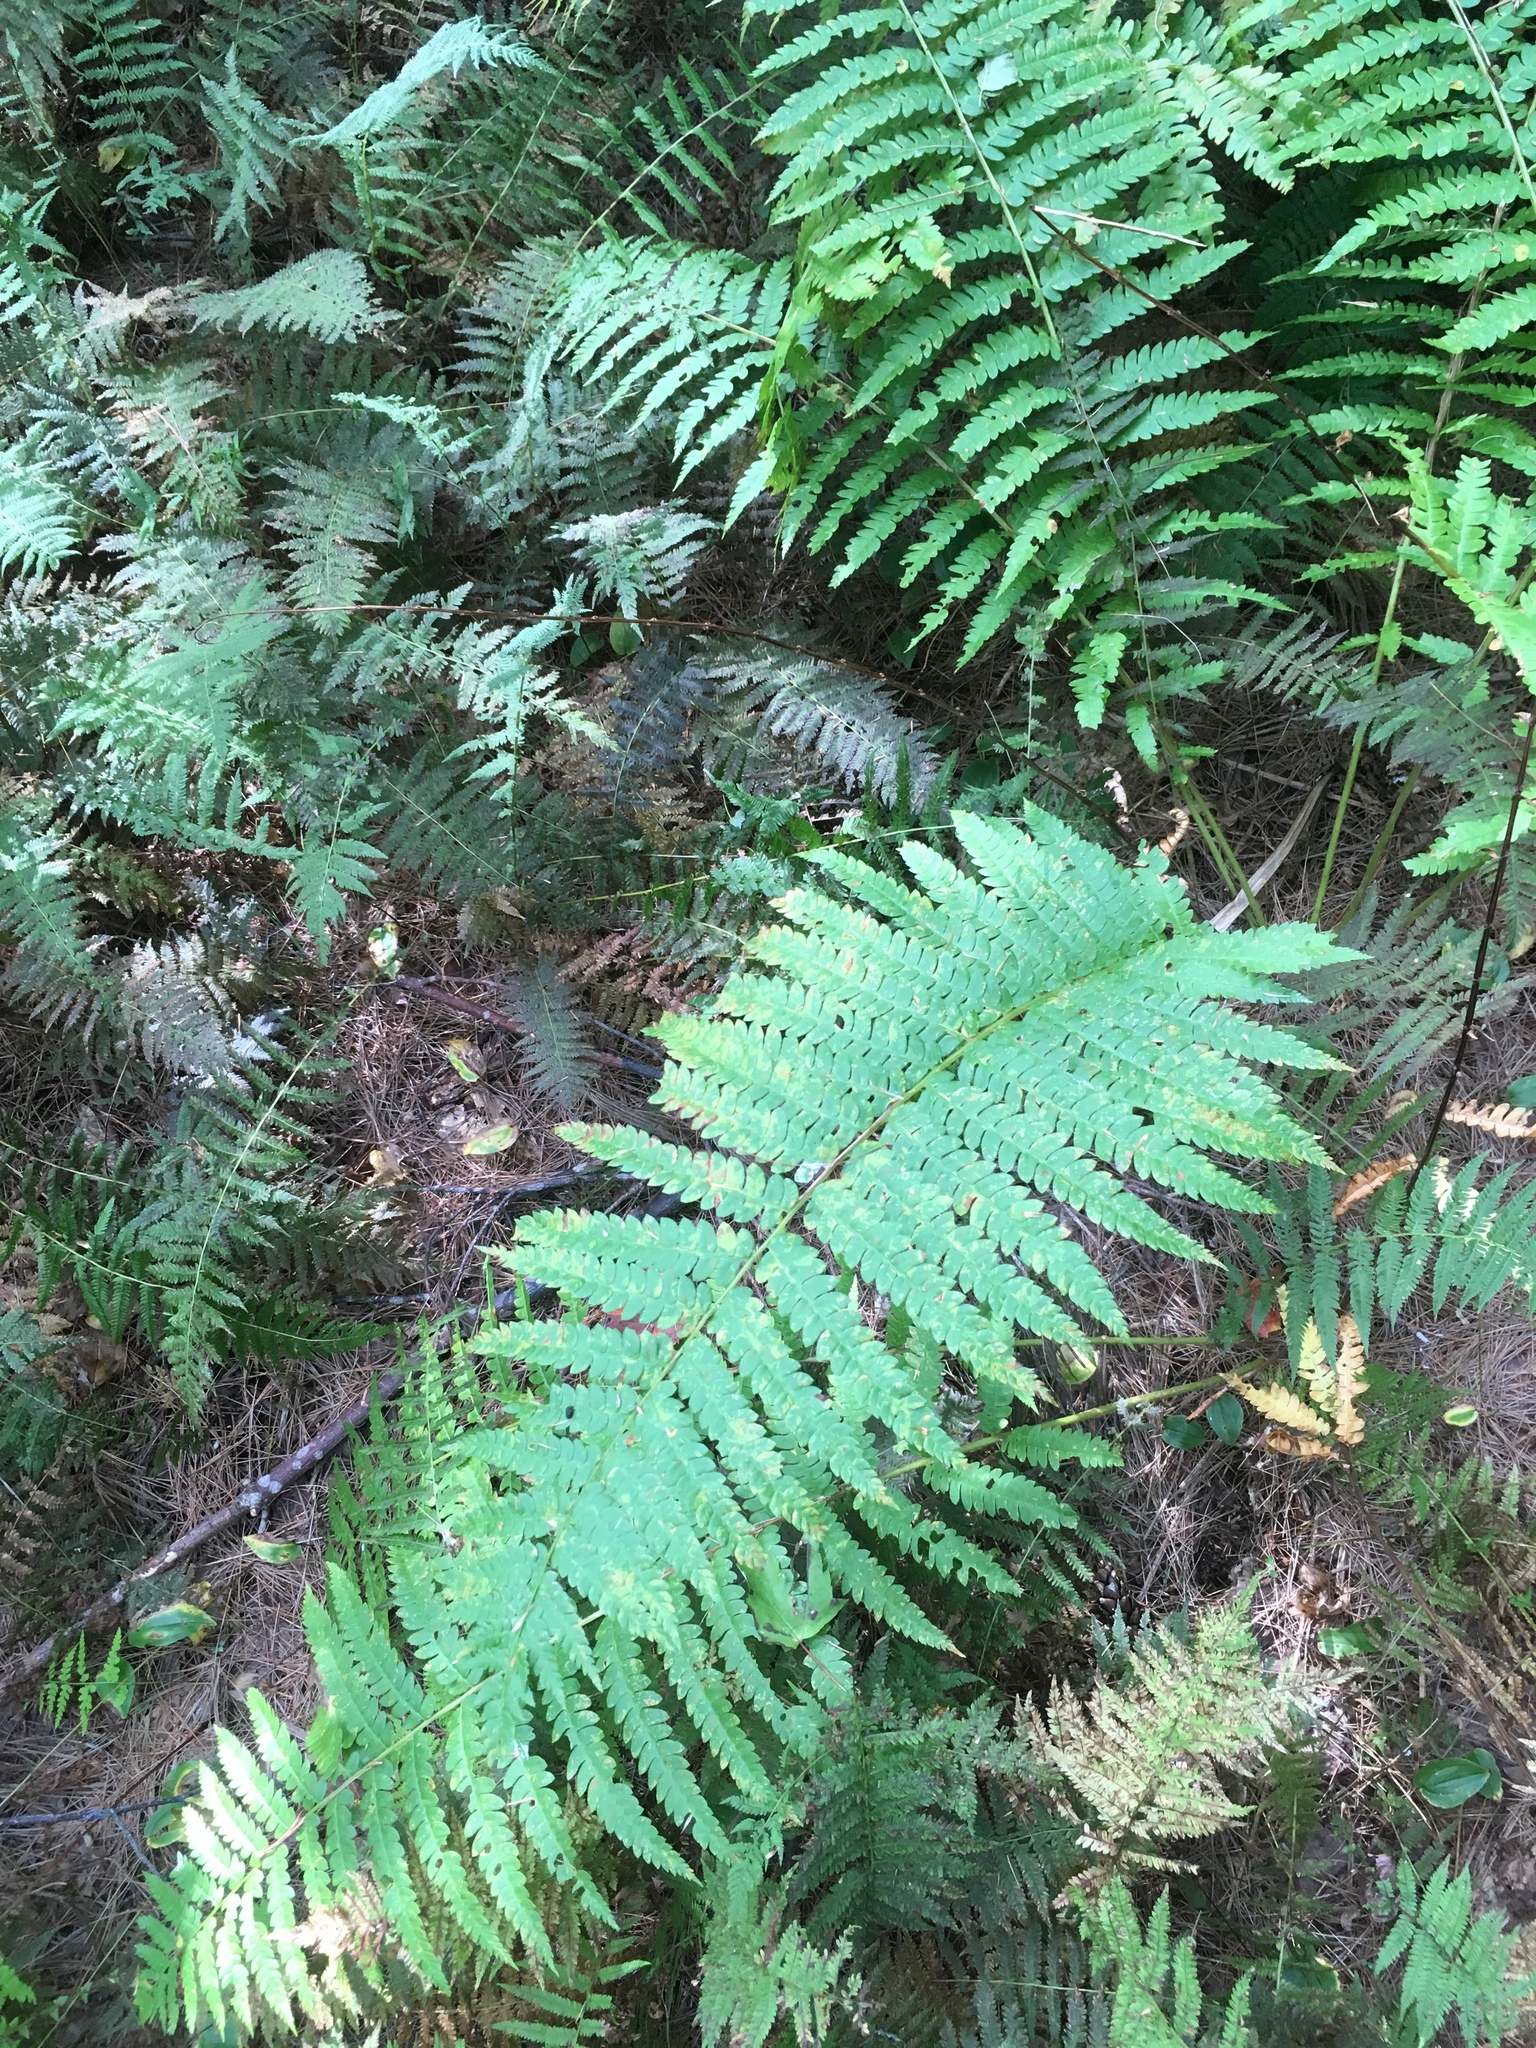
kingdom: Plantae
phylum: Tracheophyta
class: Polypodiopsida
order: Osmundales
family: Osmundaceae
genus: Osmundastrum
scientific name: Osmundastrum cinnamomeum
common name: Cinnamon fern
